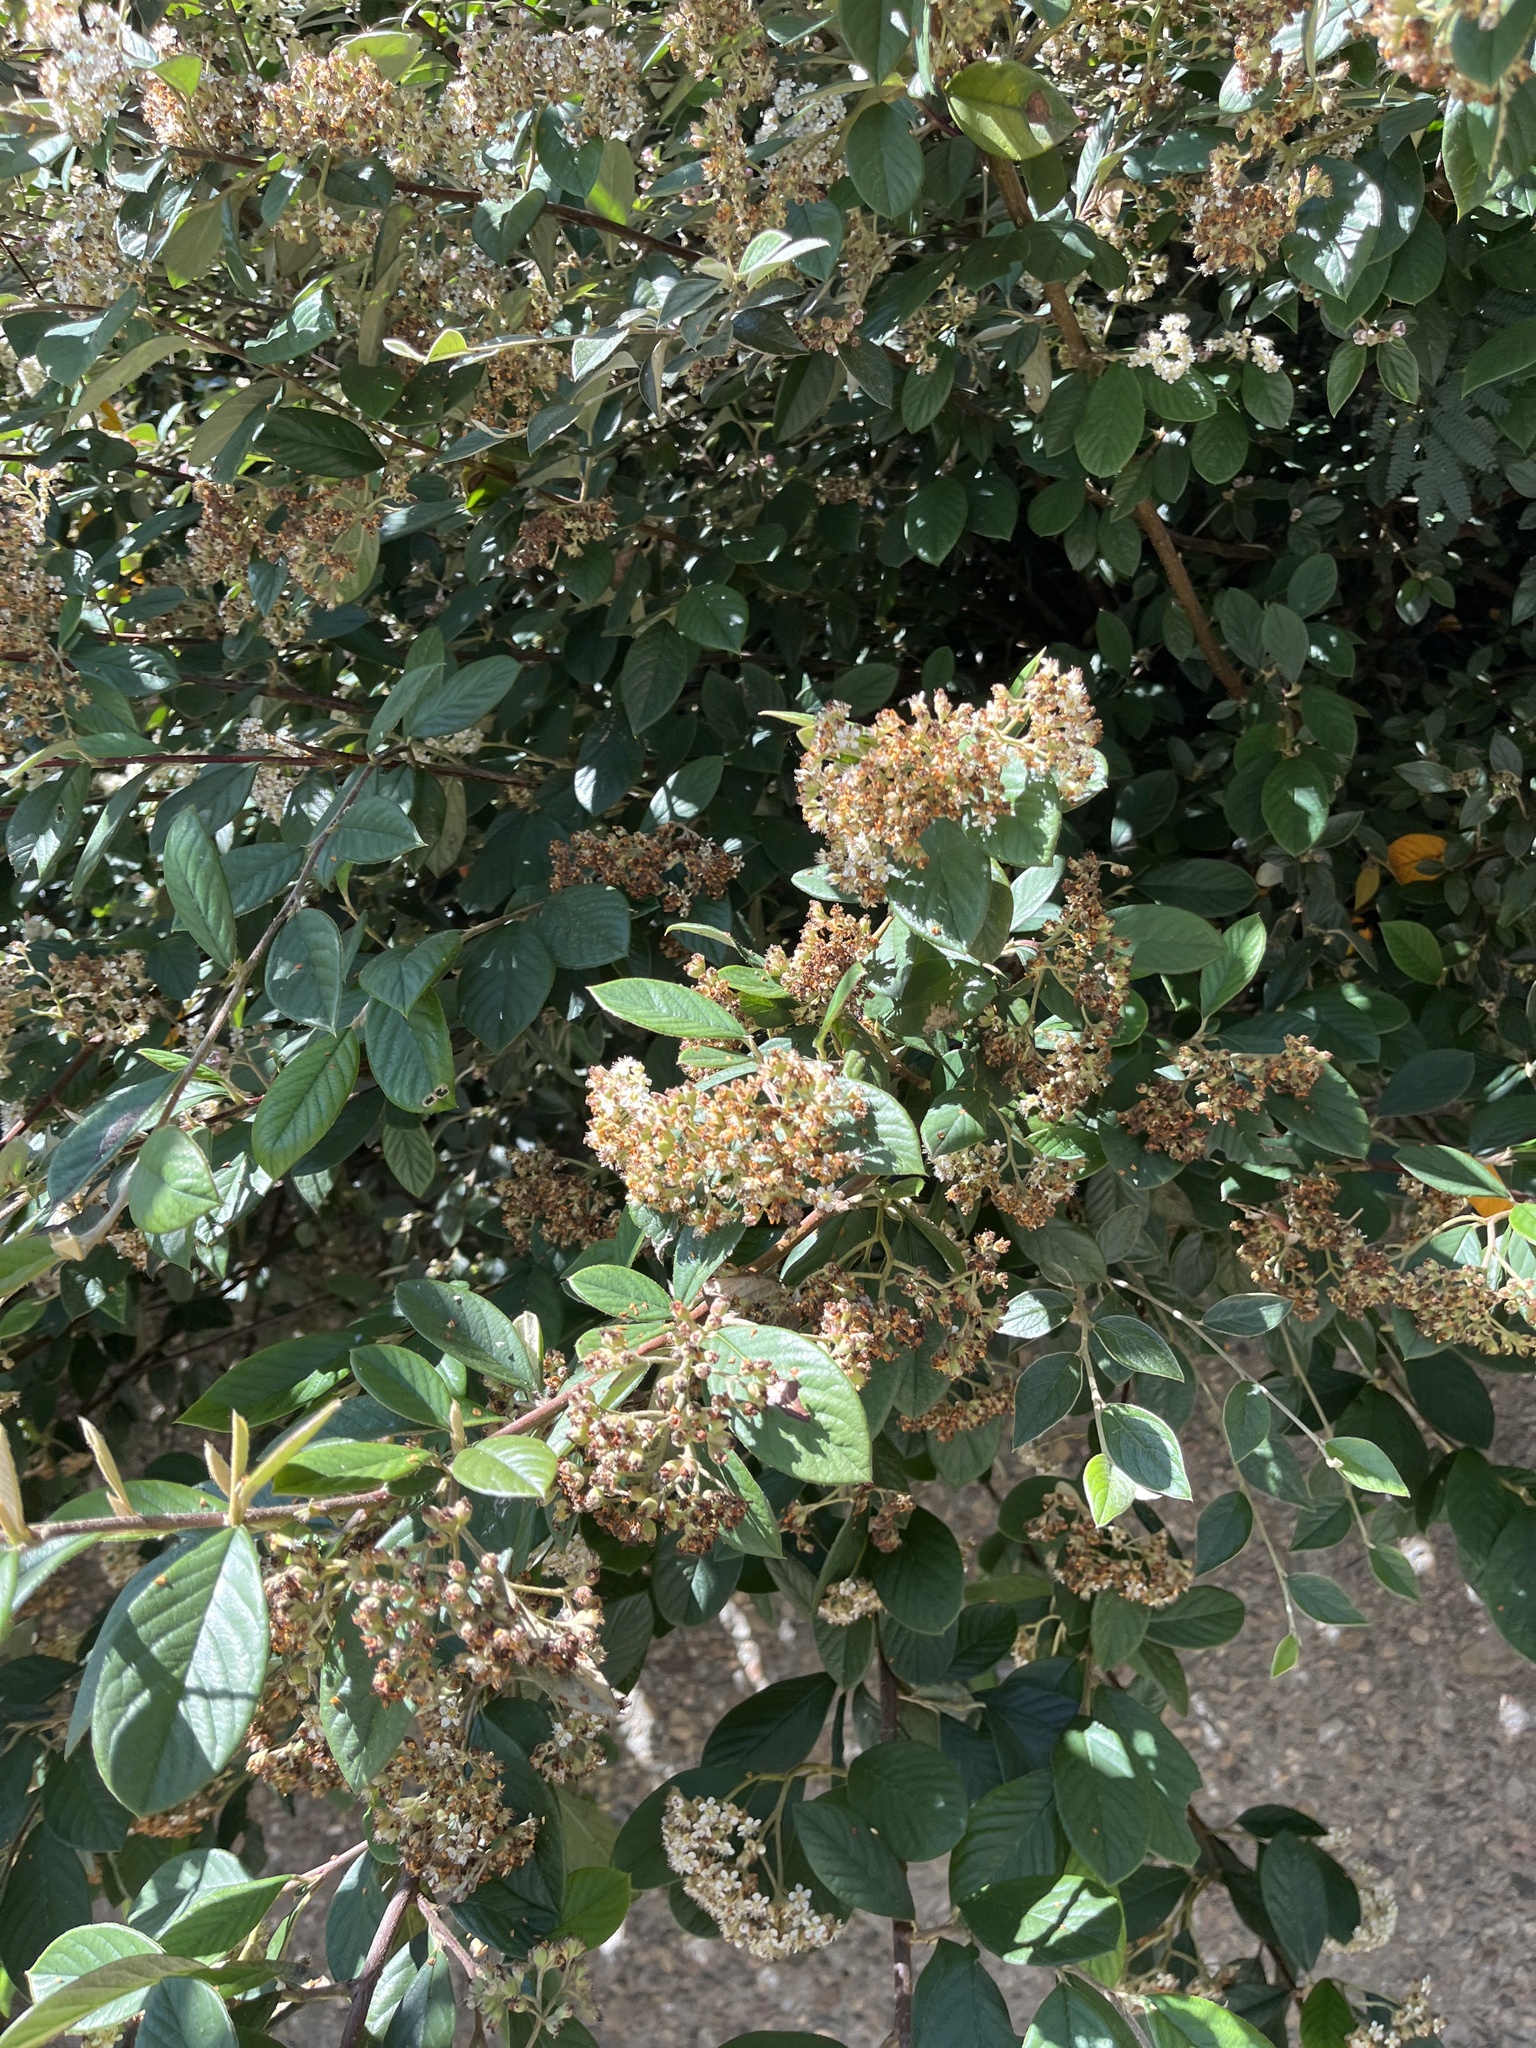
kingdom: Plantae
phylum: Tracheophyta
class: Magnoliopsida
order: Rosales
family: Rosaceae
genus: Cotoneaster
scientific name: Cotoneaster coriaceus
